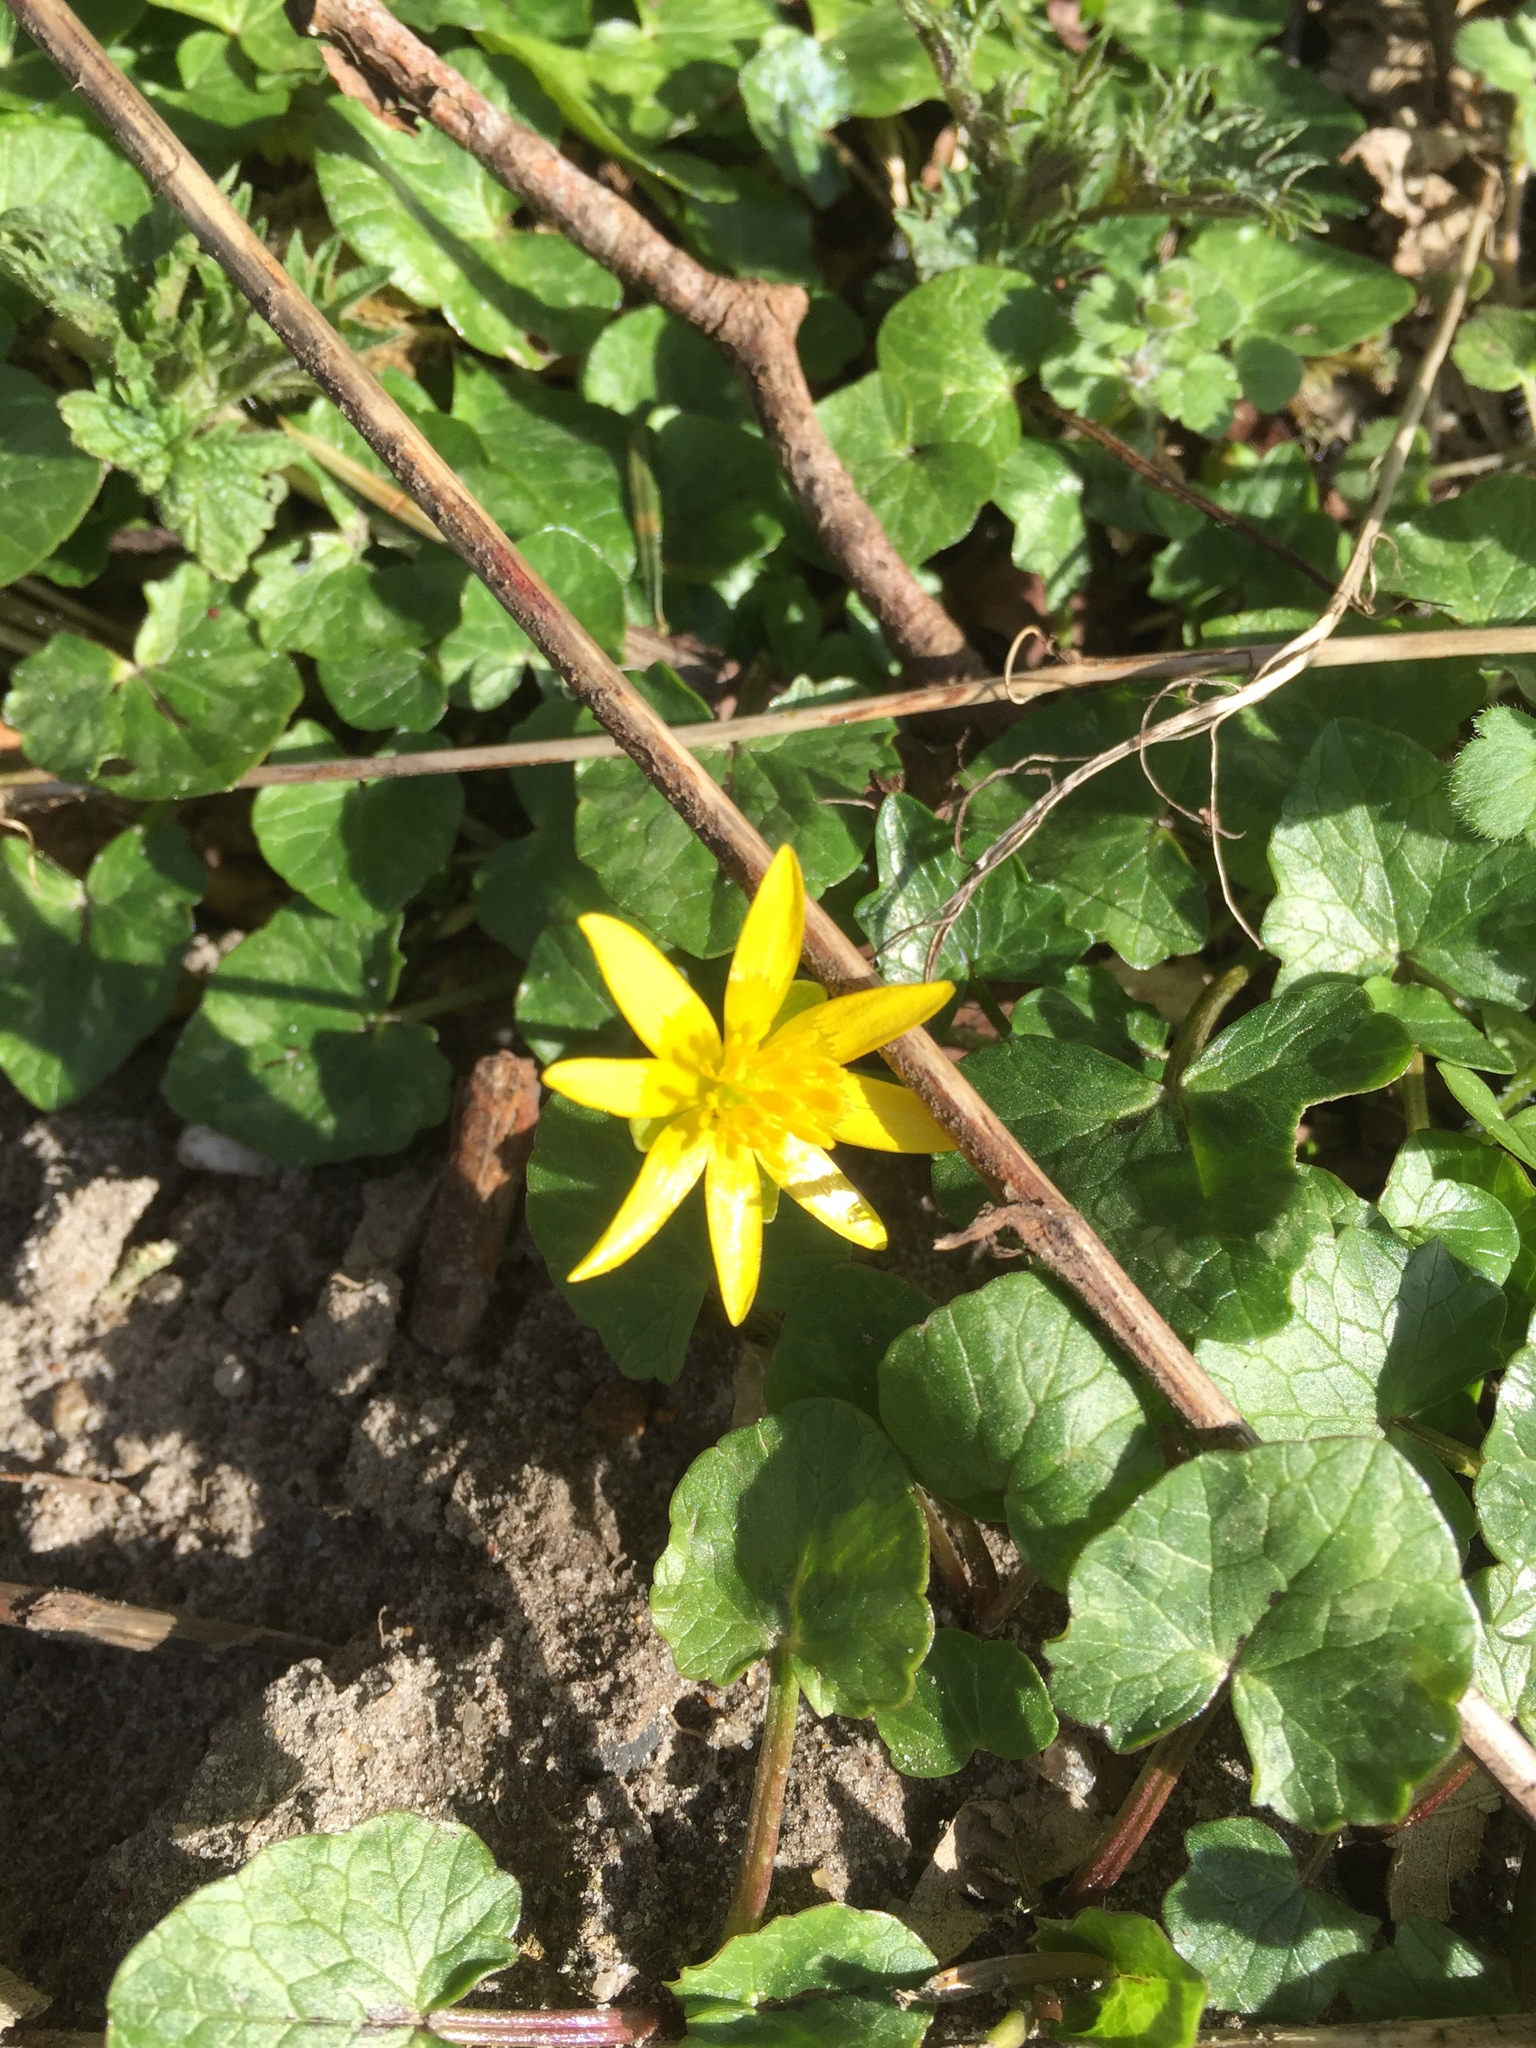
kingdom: Plantae
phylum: Tracheophyta
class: Magnoliopsida
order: Ranunculales
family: Ranunculaceae
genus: Ficaria
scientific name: Ficaria verna
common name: Lesser celandine
